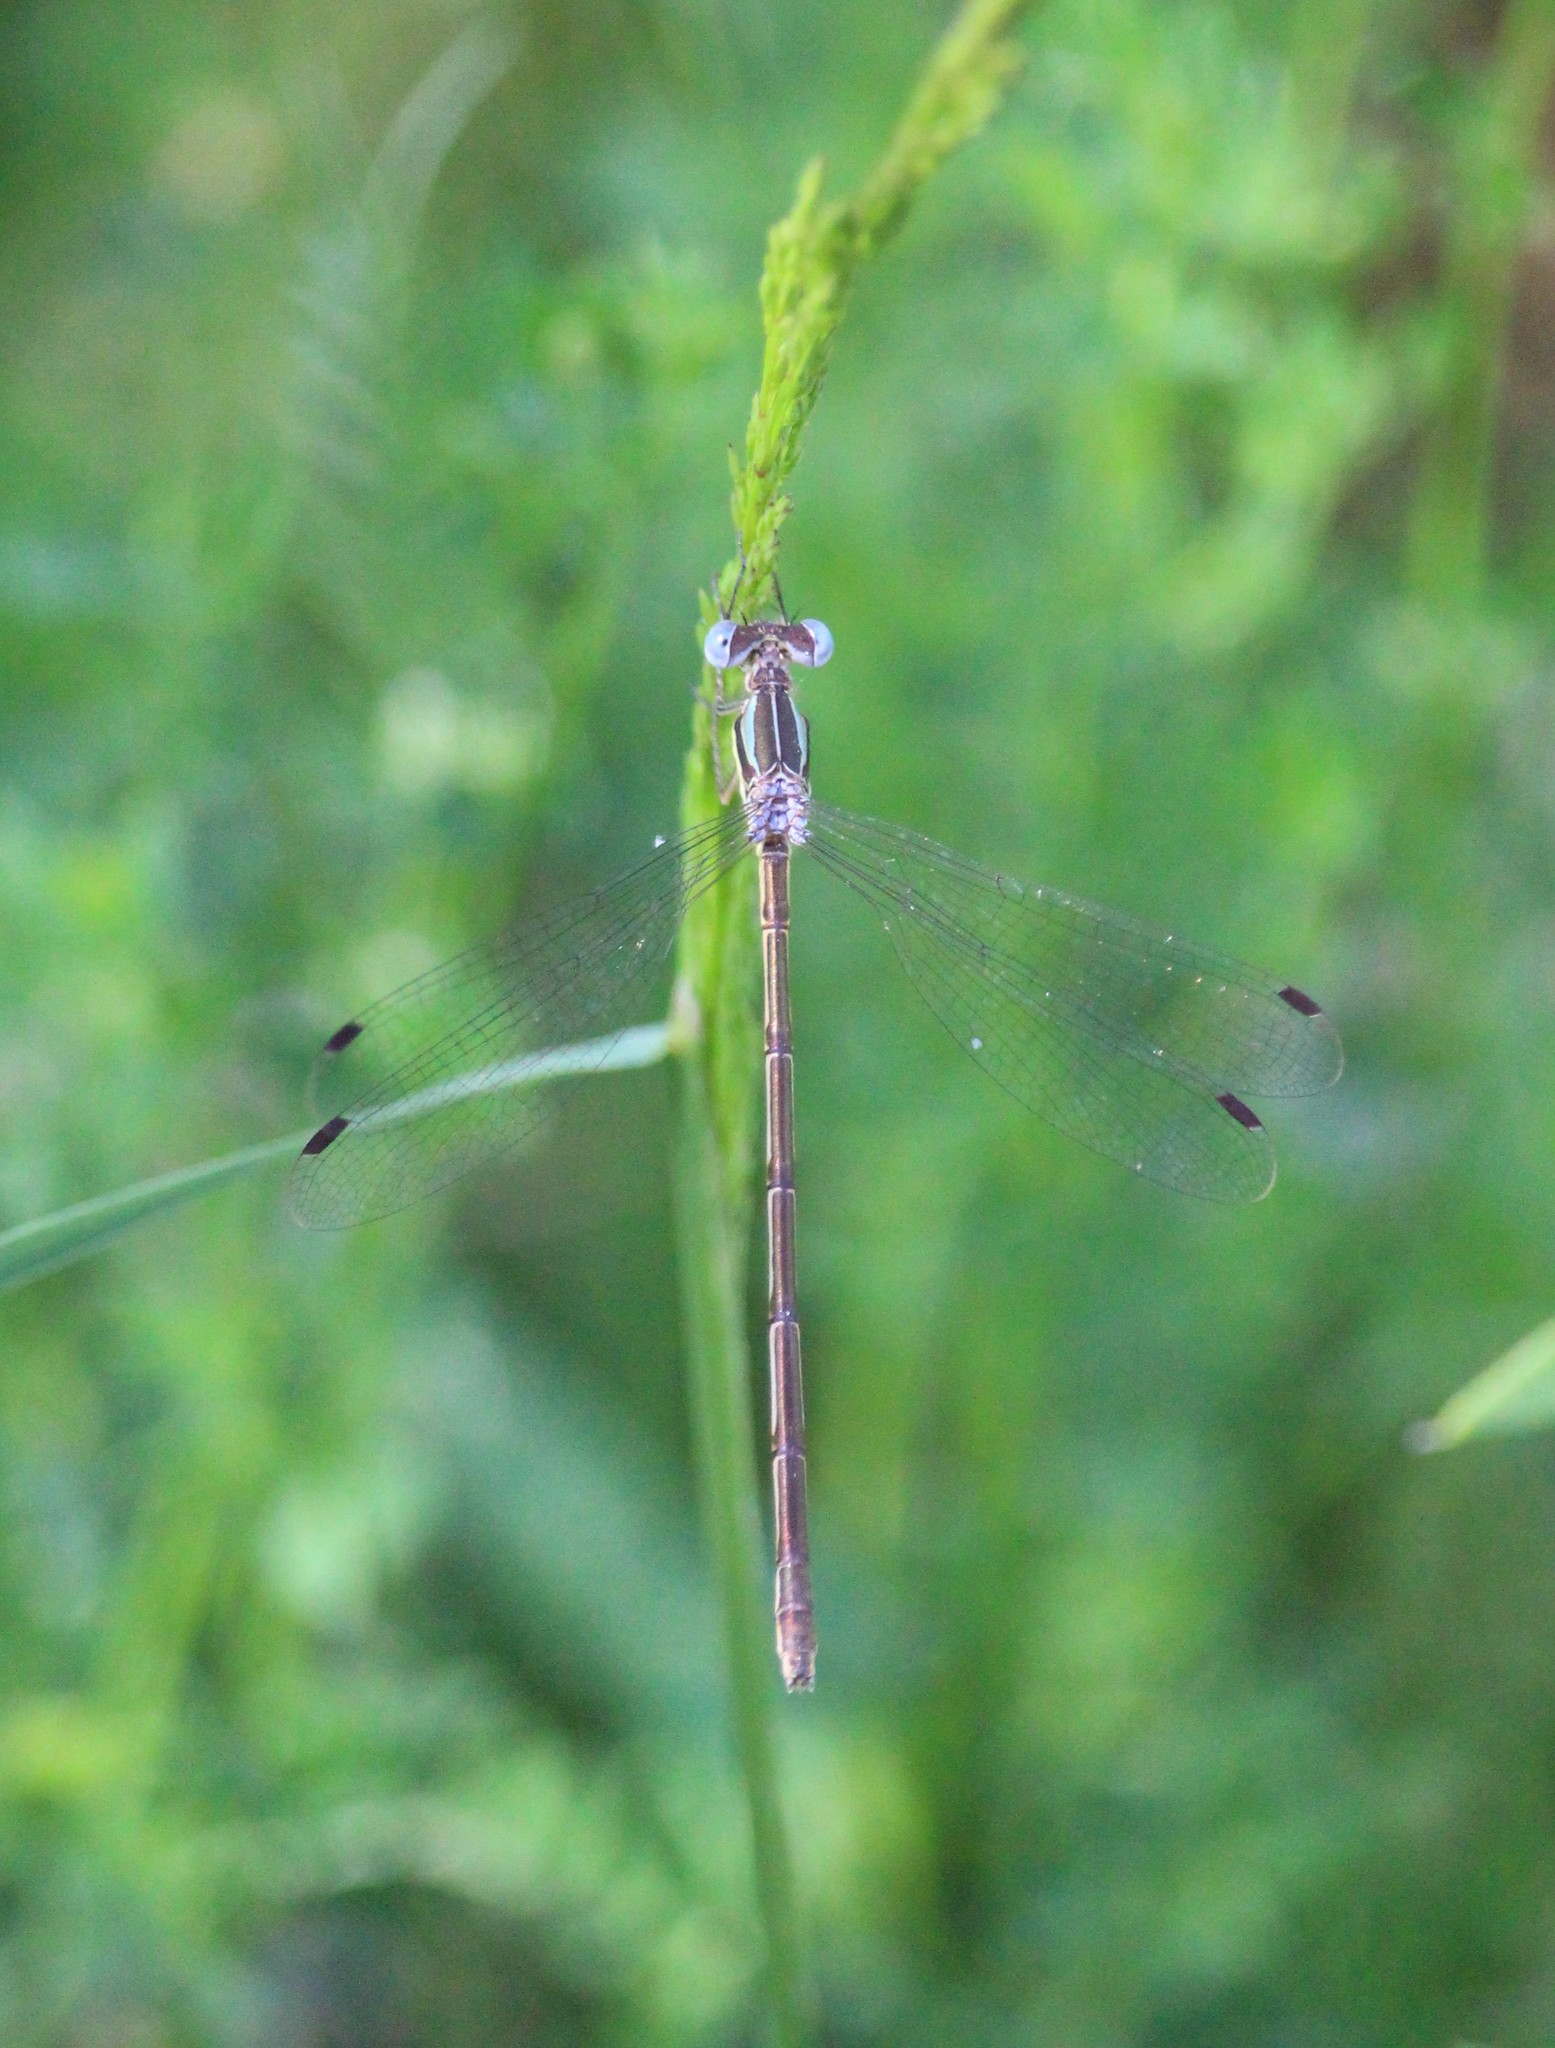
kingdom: Animalia
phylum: Arthropoda
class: Insecta
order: Odonata
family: Lestidae
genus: Lestes
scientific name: Lestes rectangularis
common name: Slender spreadwing
